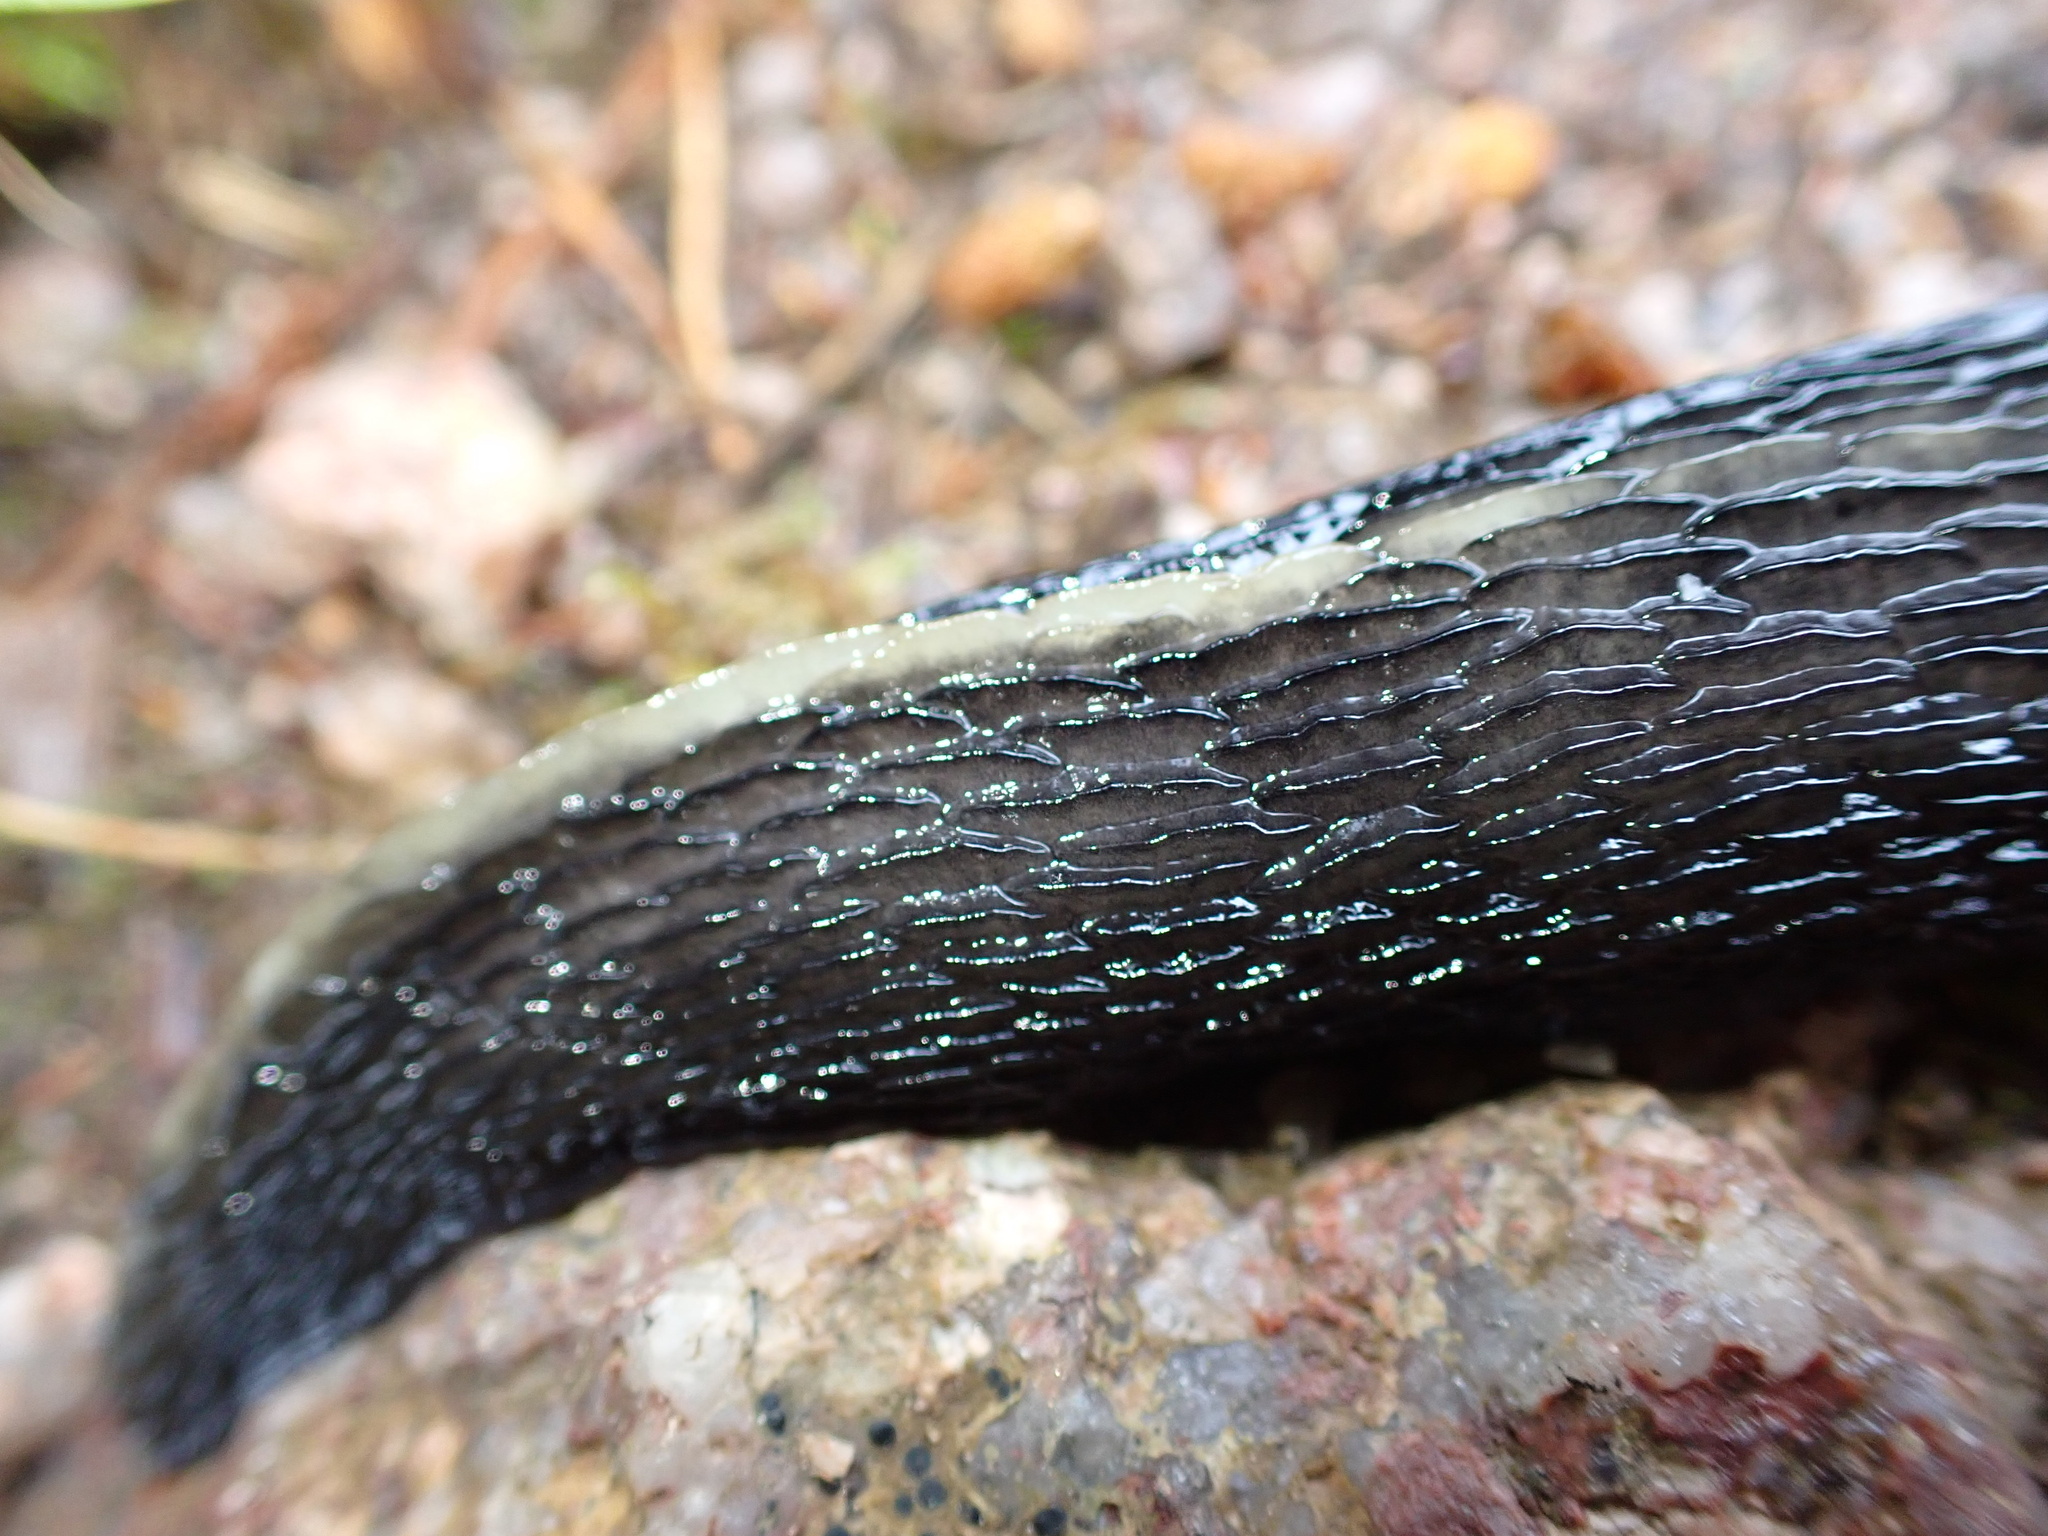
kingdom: Animalia
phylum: Mollusca
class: Gastropoda
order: Stylommatophora
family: Limacidae
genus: Limax
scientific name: Limax cinereoniger
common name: Ash-black slug
